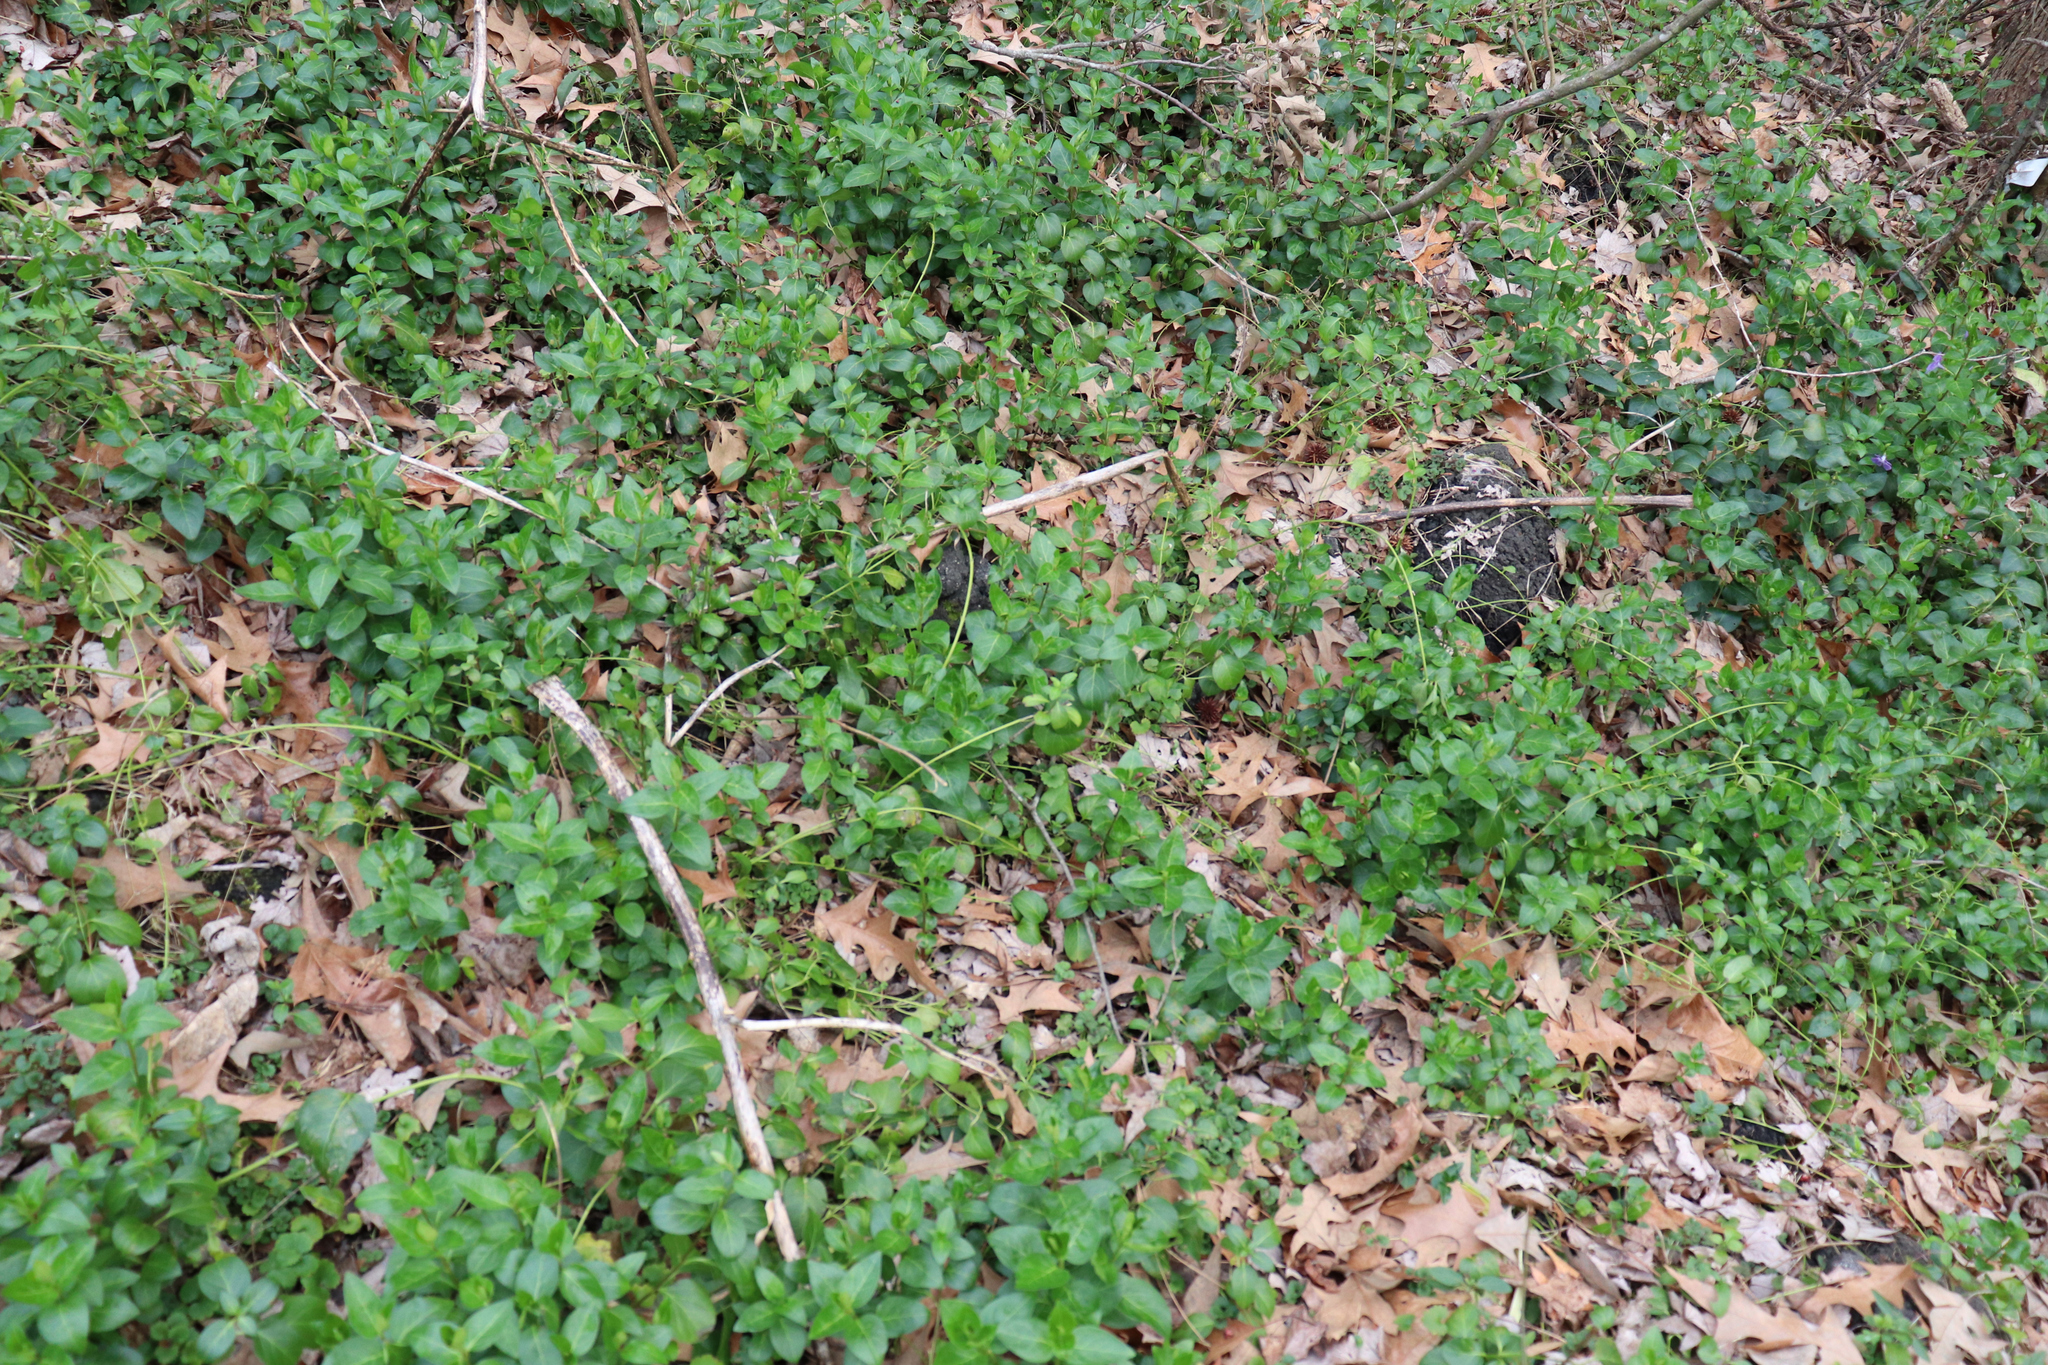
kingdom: Plantae
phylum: Tracheophyta
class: Magnoliopsida
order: Gentianales
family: Apocynaceae
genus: Vinca
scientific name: Vinca major
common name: Greater periwinkle
